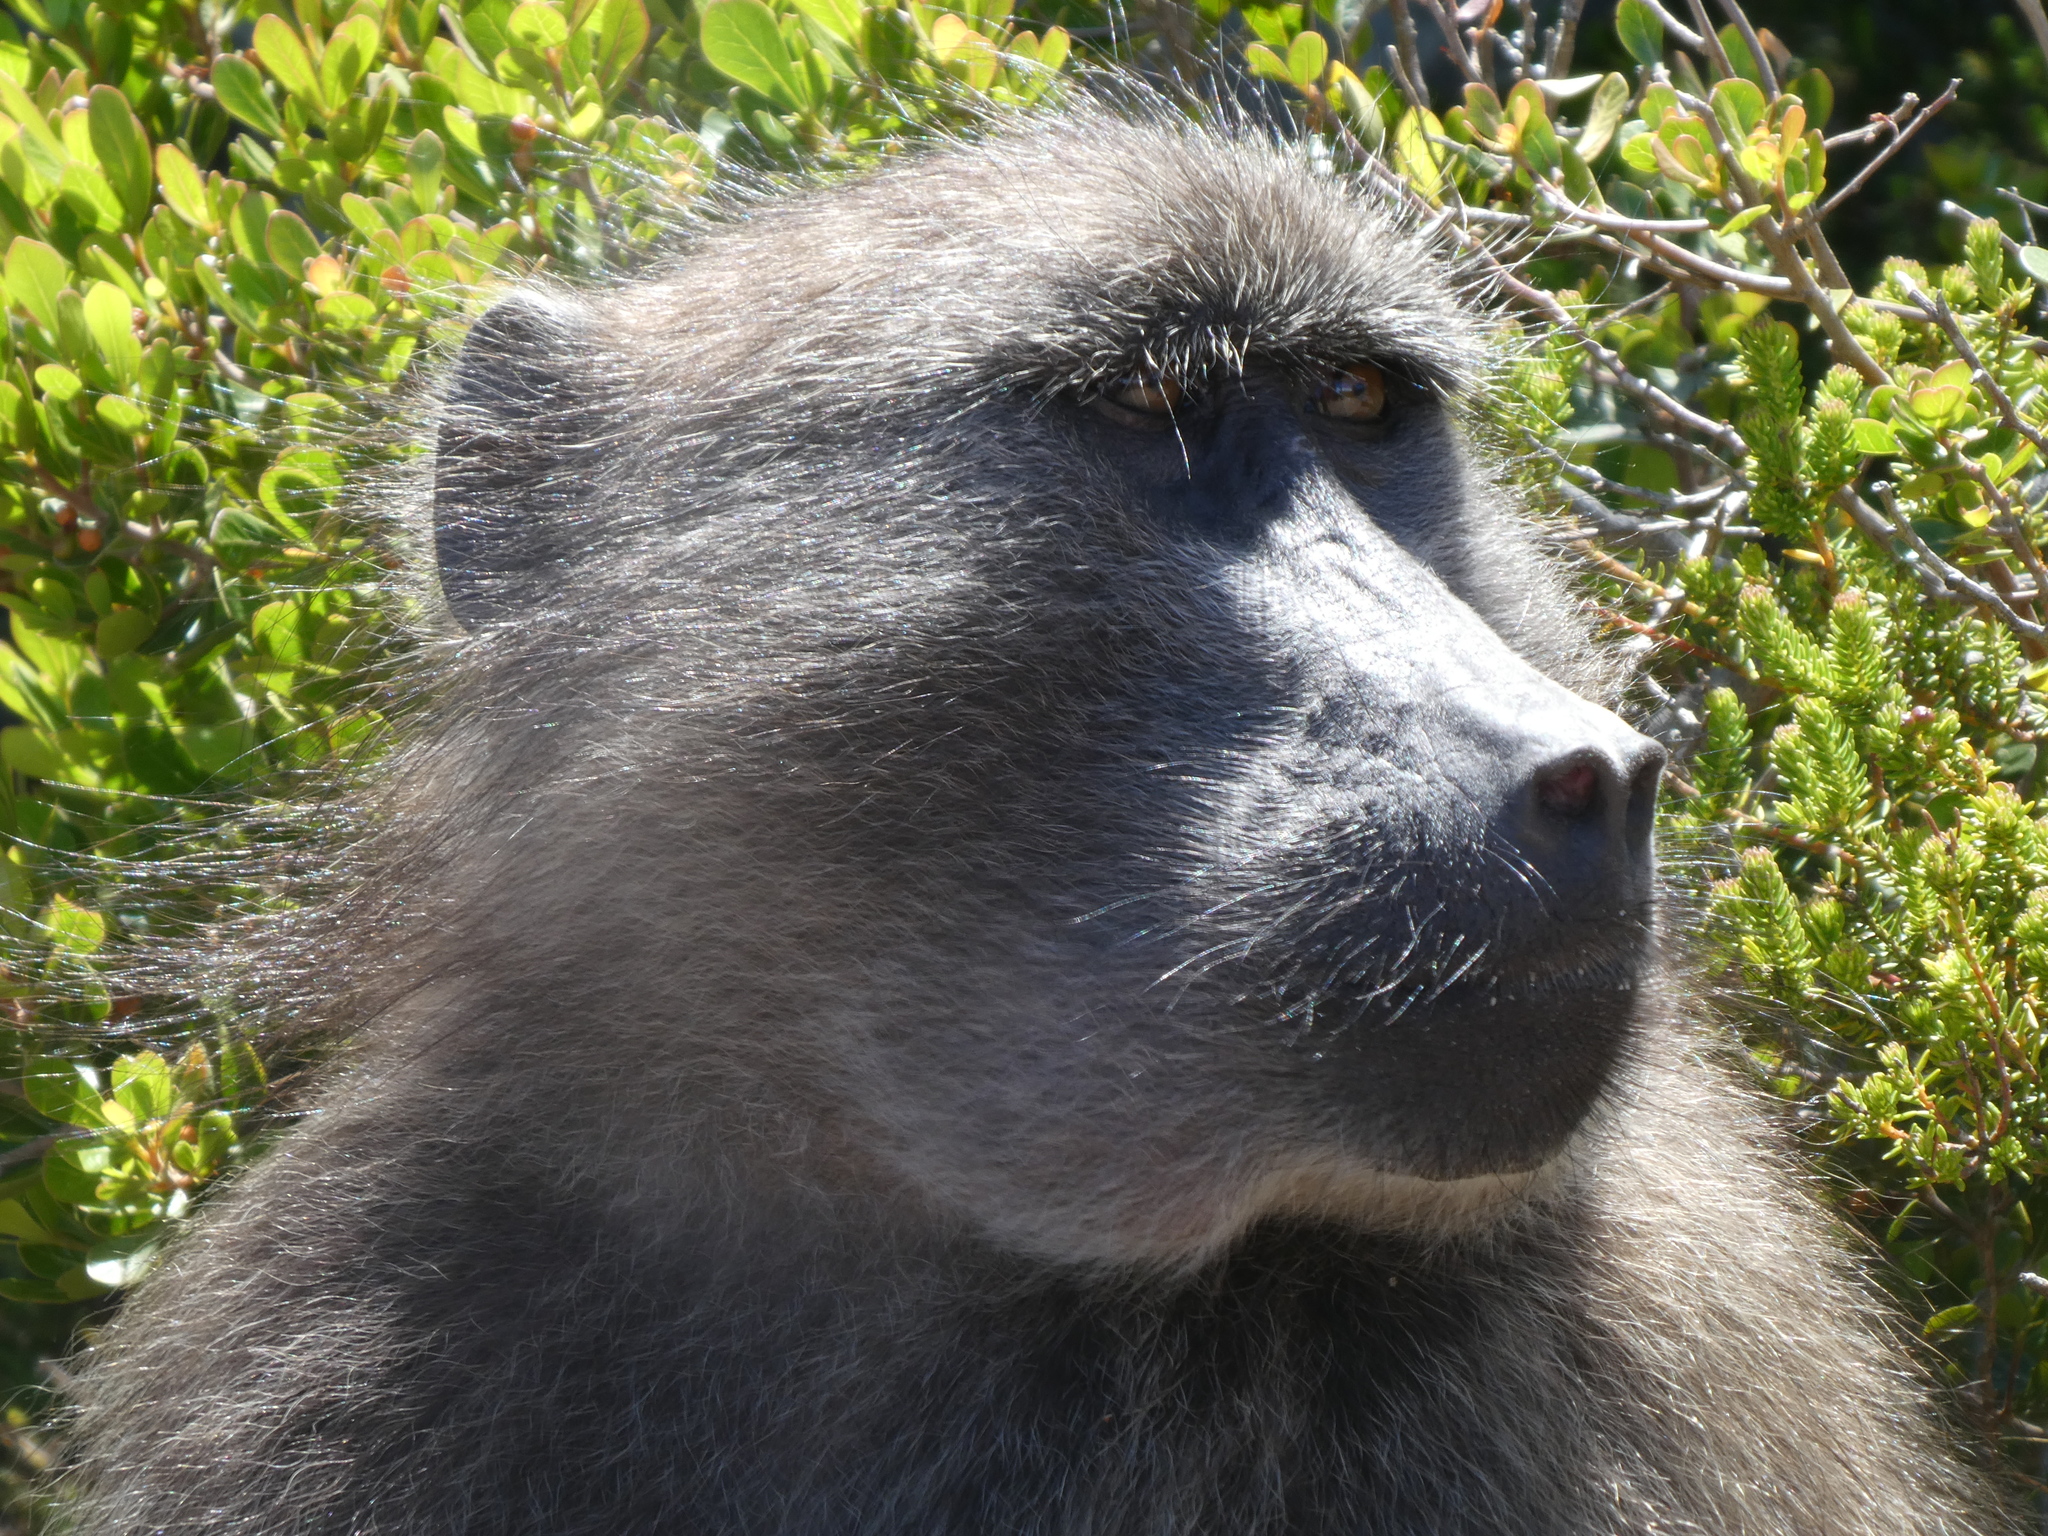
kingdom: Animalia
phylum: Chordata
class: Mammalia
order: Primates
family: Cercopithecidae
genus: Papio
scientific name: Papio ursinus
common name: Chacma baboon
